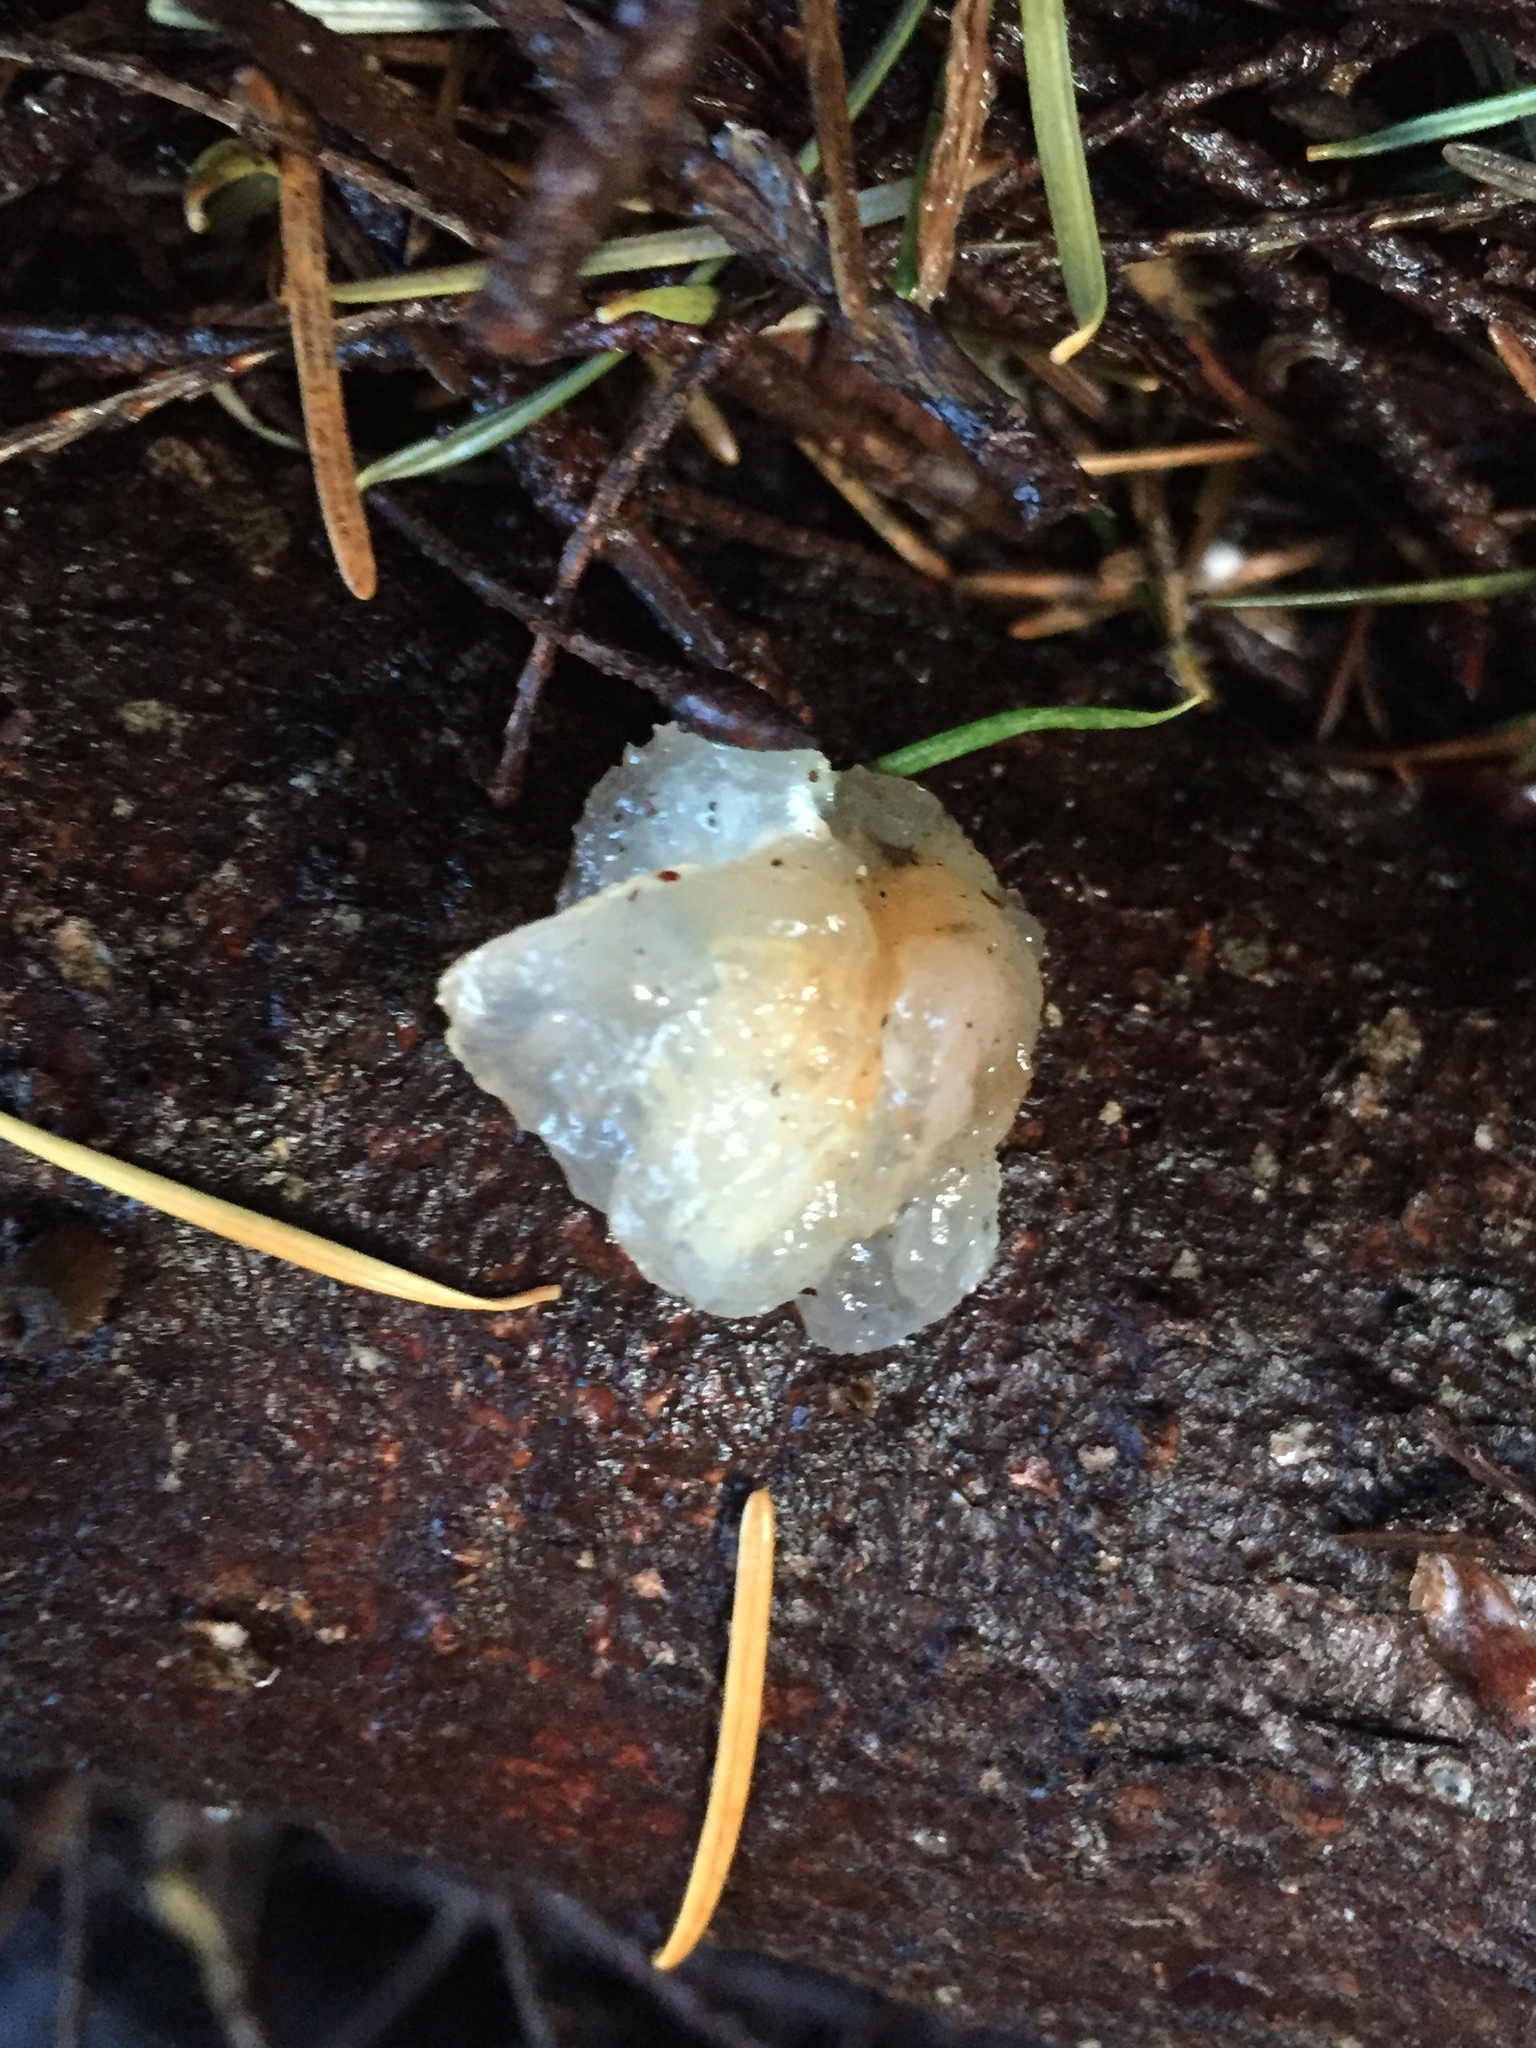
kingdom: Fungi
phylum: Basidiomycota
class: Agaricomycetes
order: Auriculariales
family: Hyaloriaceae
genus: Myxarium
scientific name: Myxarium nucleatum
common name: Crystal brain fungus
